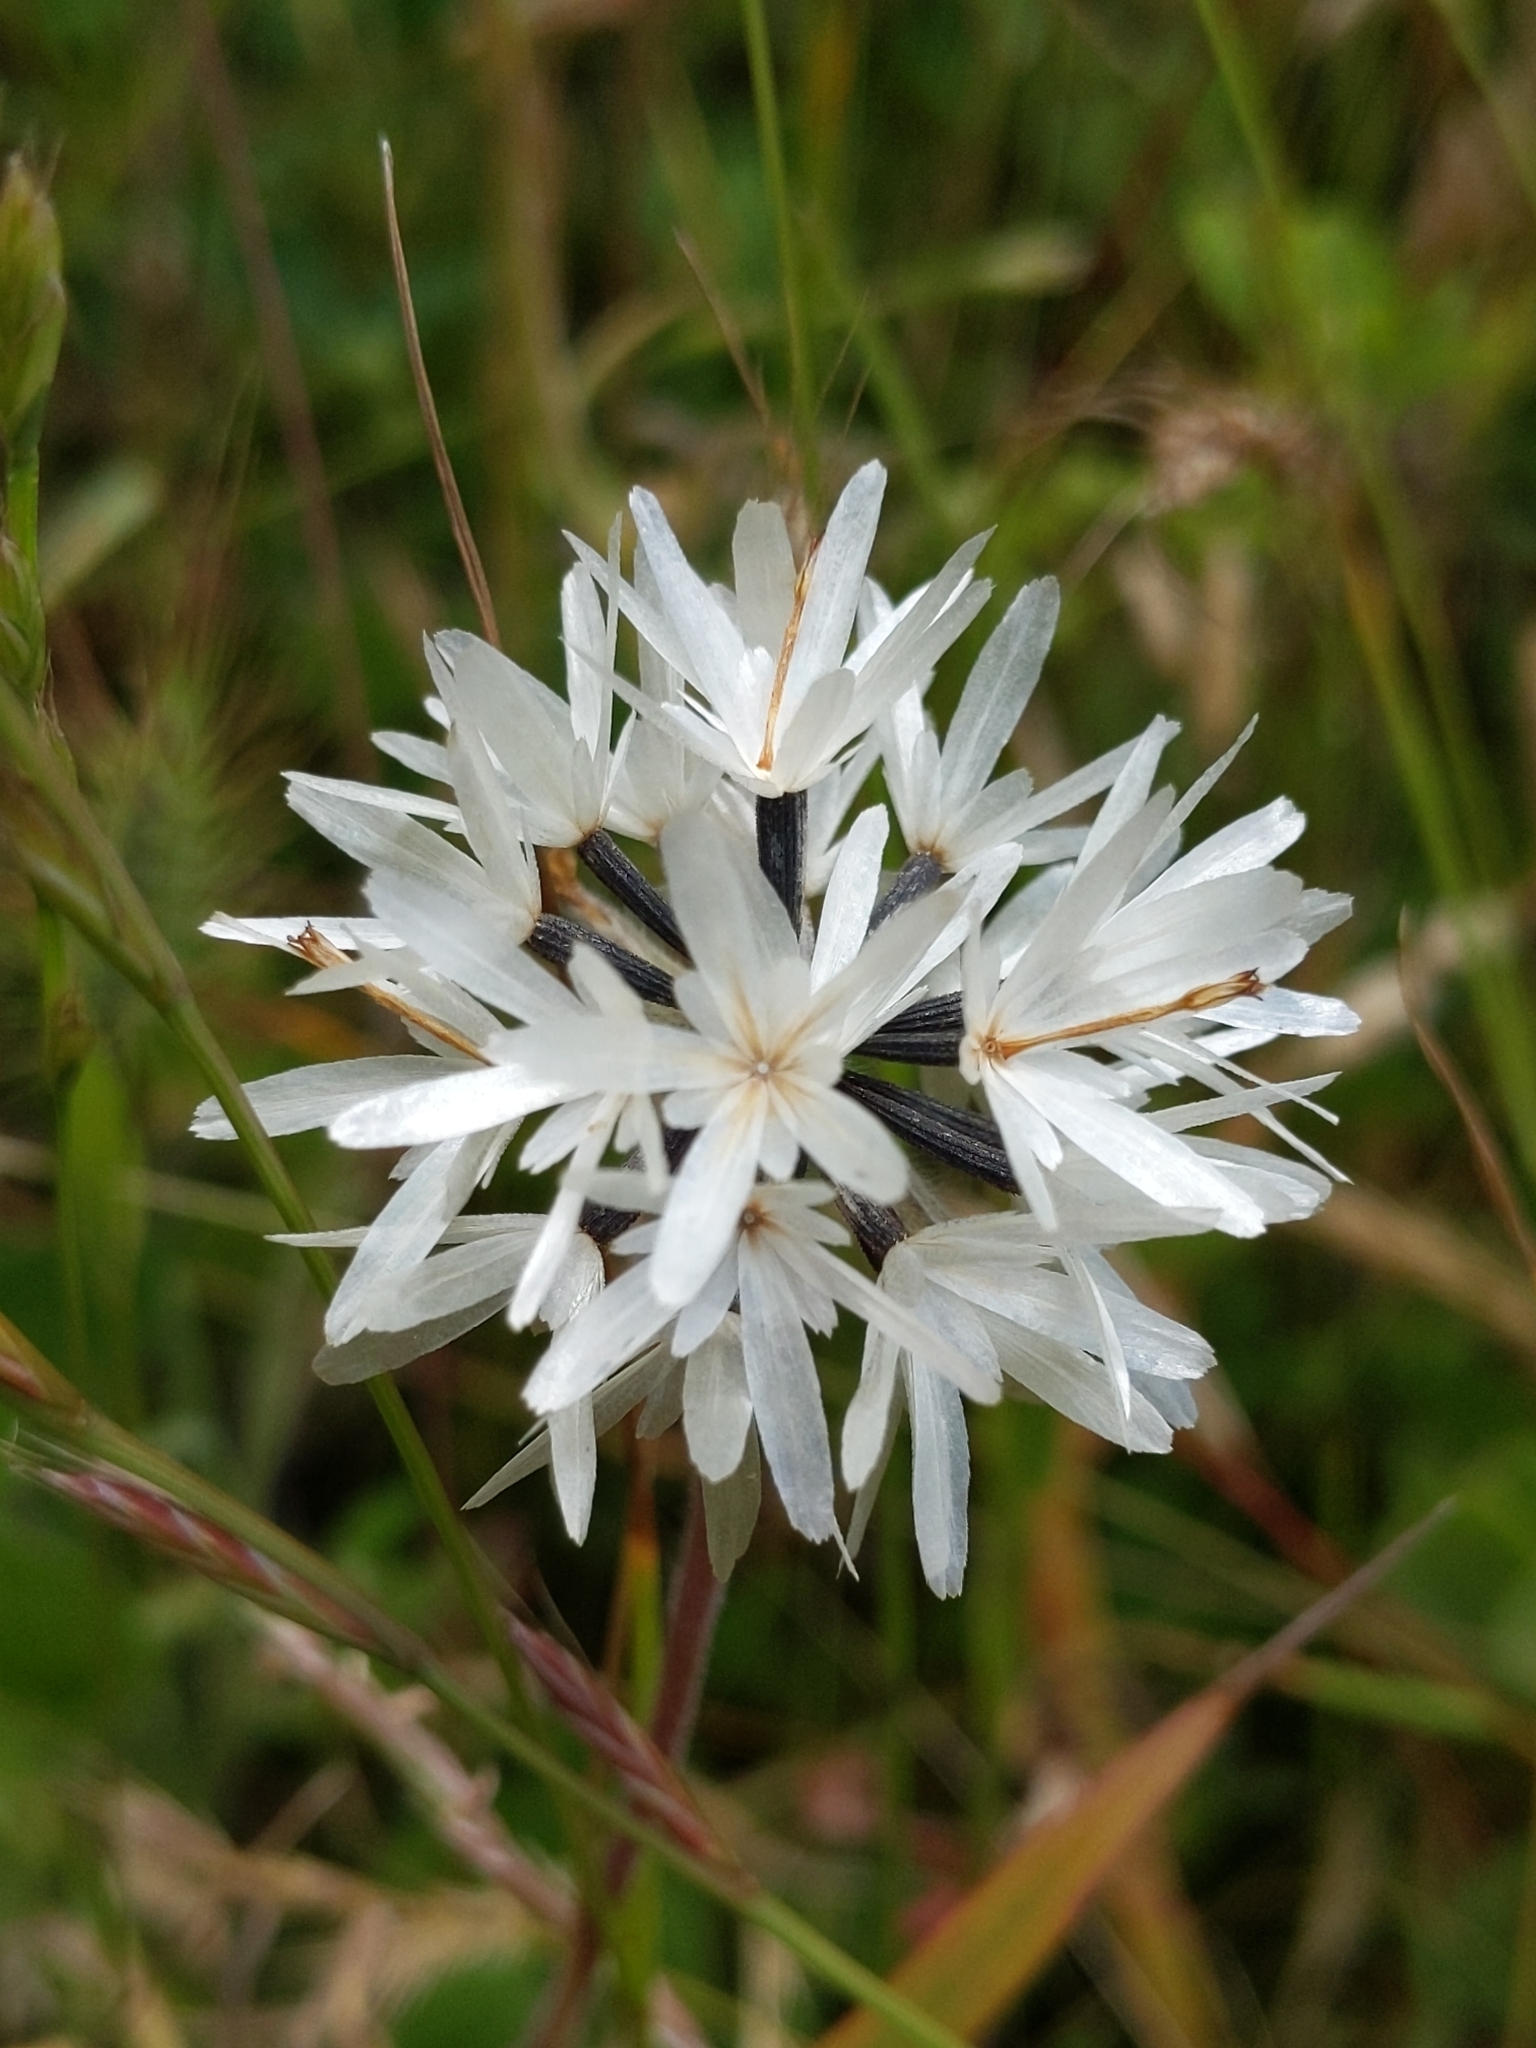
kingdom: Plantae
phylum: Tracheophyta
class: Magnoliopsida
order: Asterales
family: Asteraceae
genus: Achyrachaena
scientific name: Achyrachaena mollis
